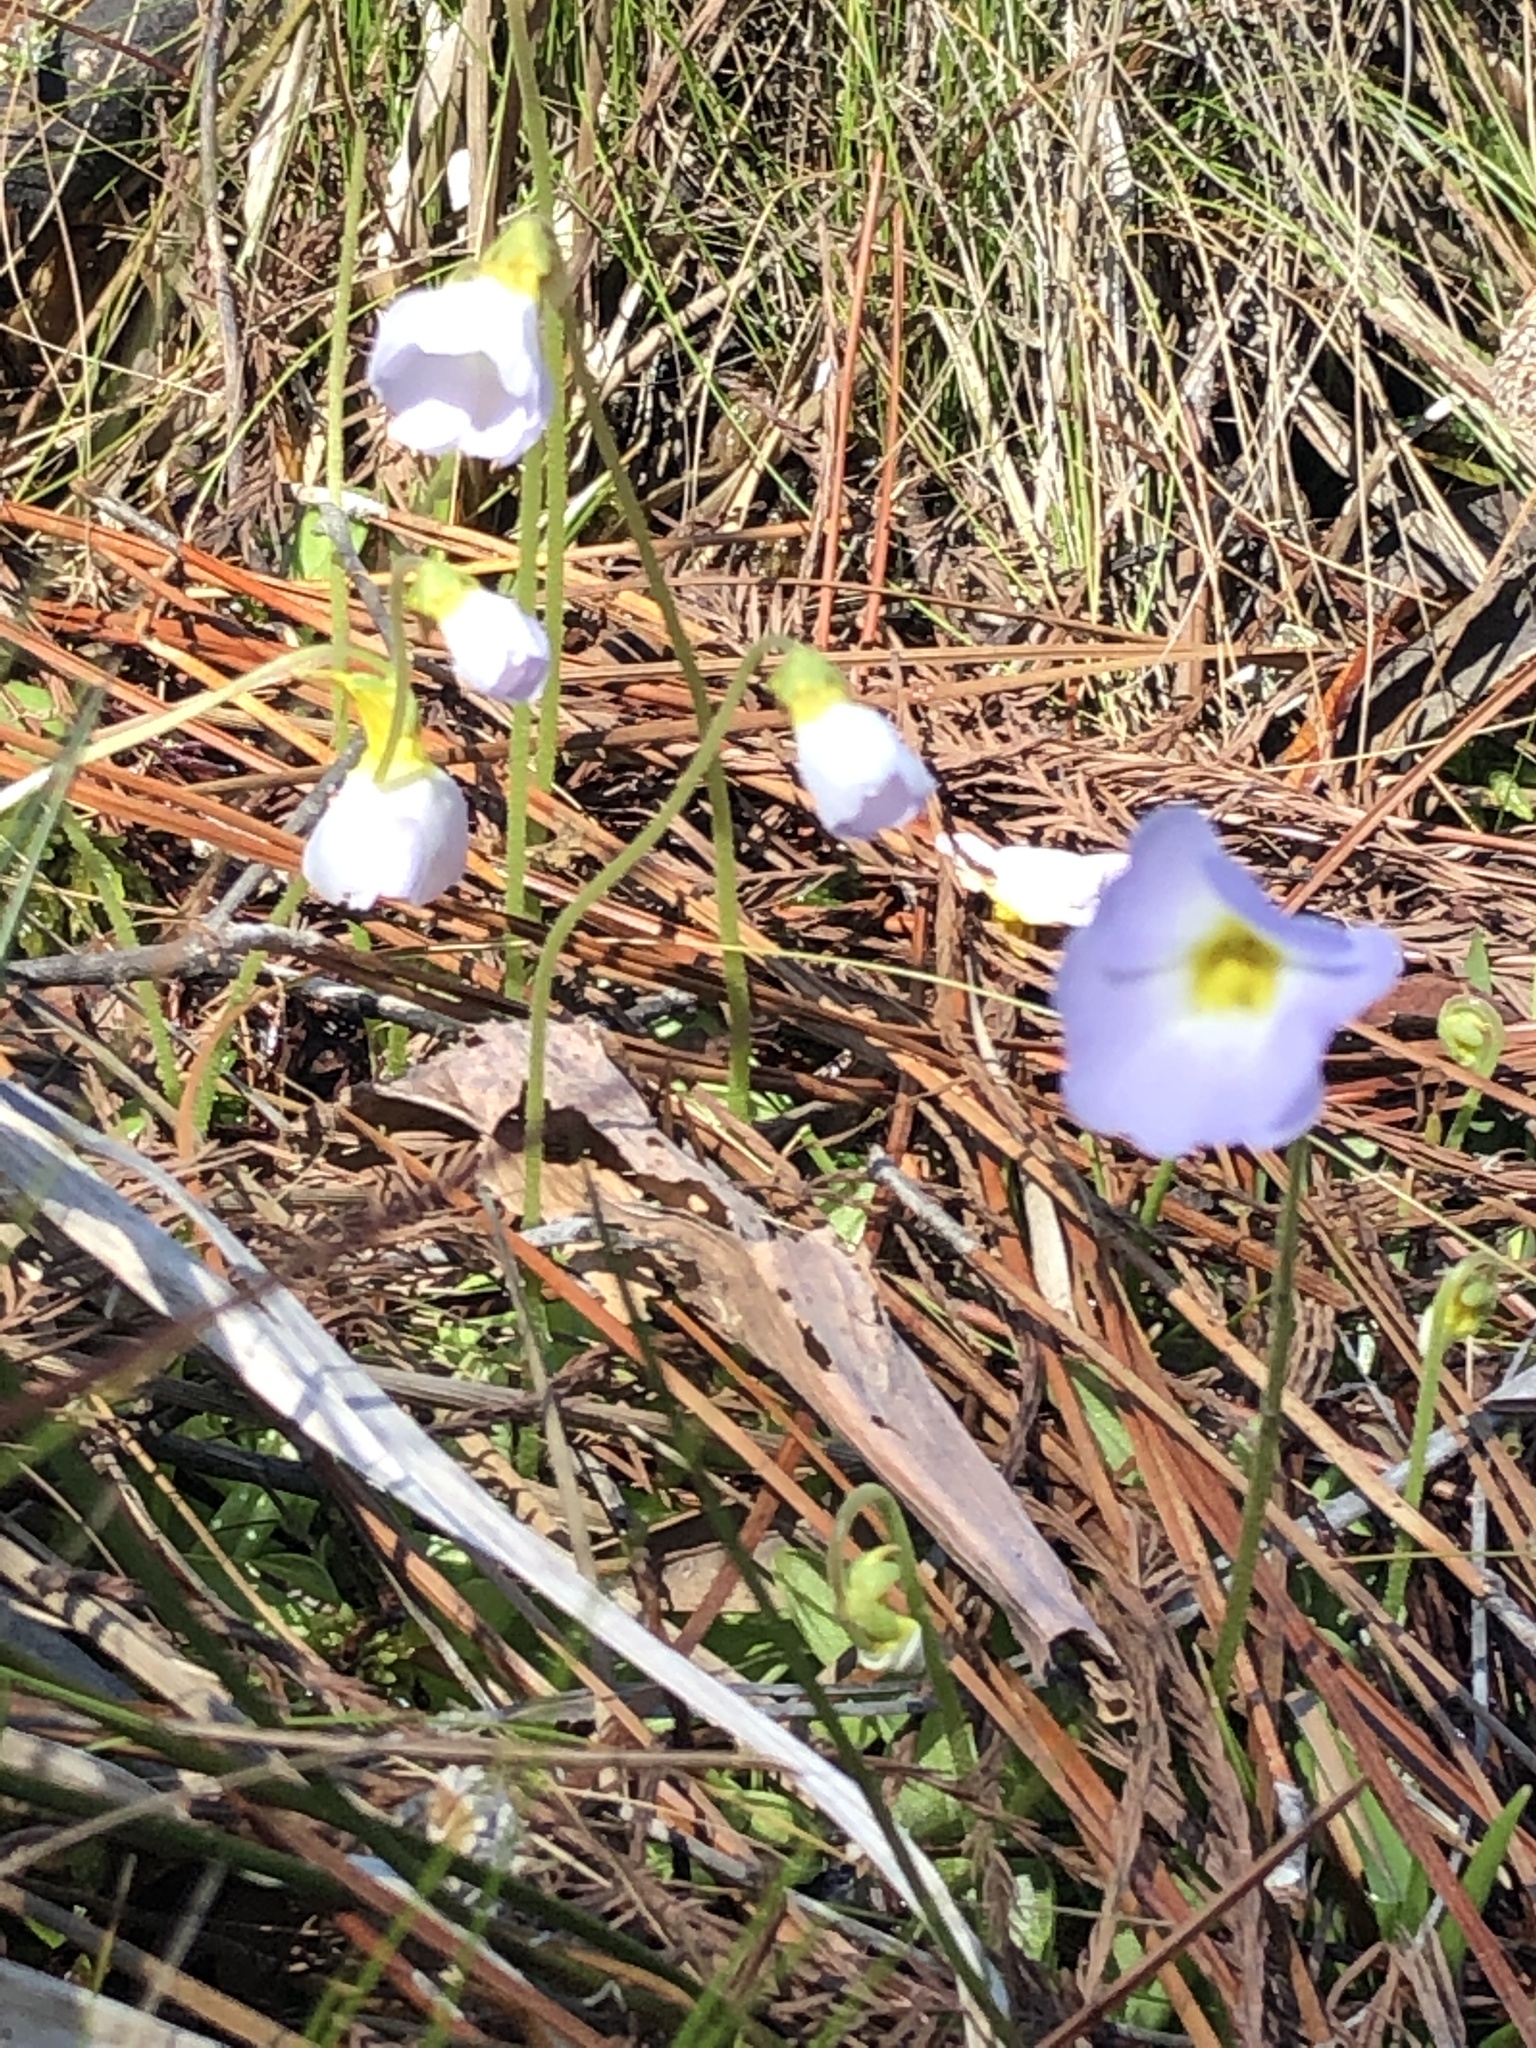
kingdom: Plantae
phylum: Tracheophyta
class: Magnoliopsida
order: Lamiales
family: Lentibulariaceae
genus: Pinguicula
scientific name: Pinguicula primuliflora
